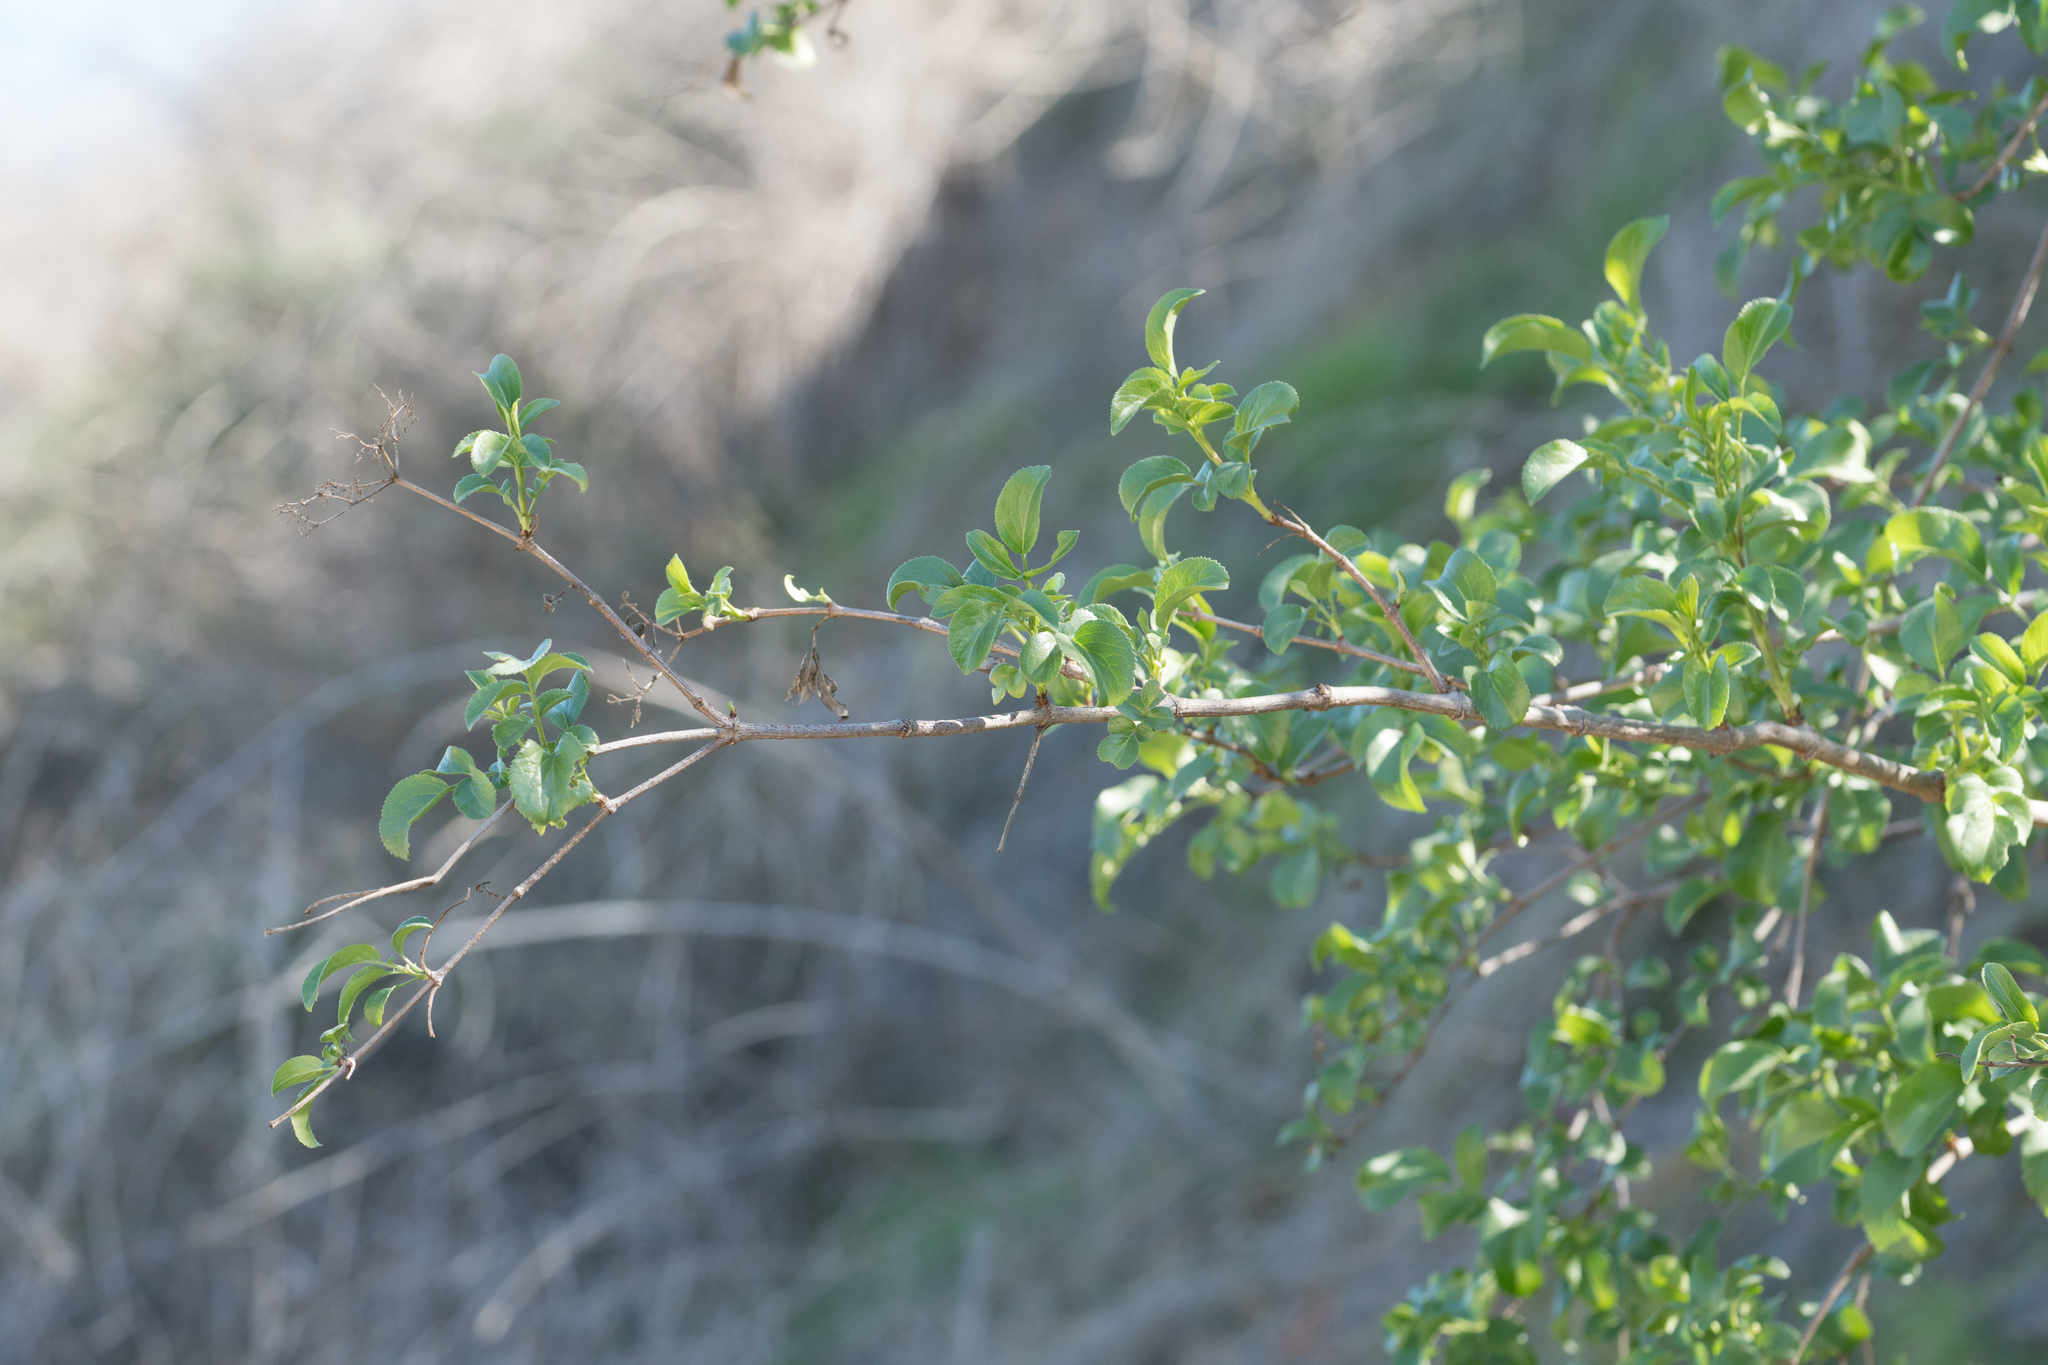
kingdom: Plantae
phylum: Tracheophyta
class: Magnoliopsida
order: Dipsacales
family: Viburnaceae
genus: Sambucus
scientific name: Sambucus cerulea
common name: Blue elder
